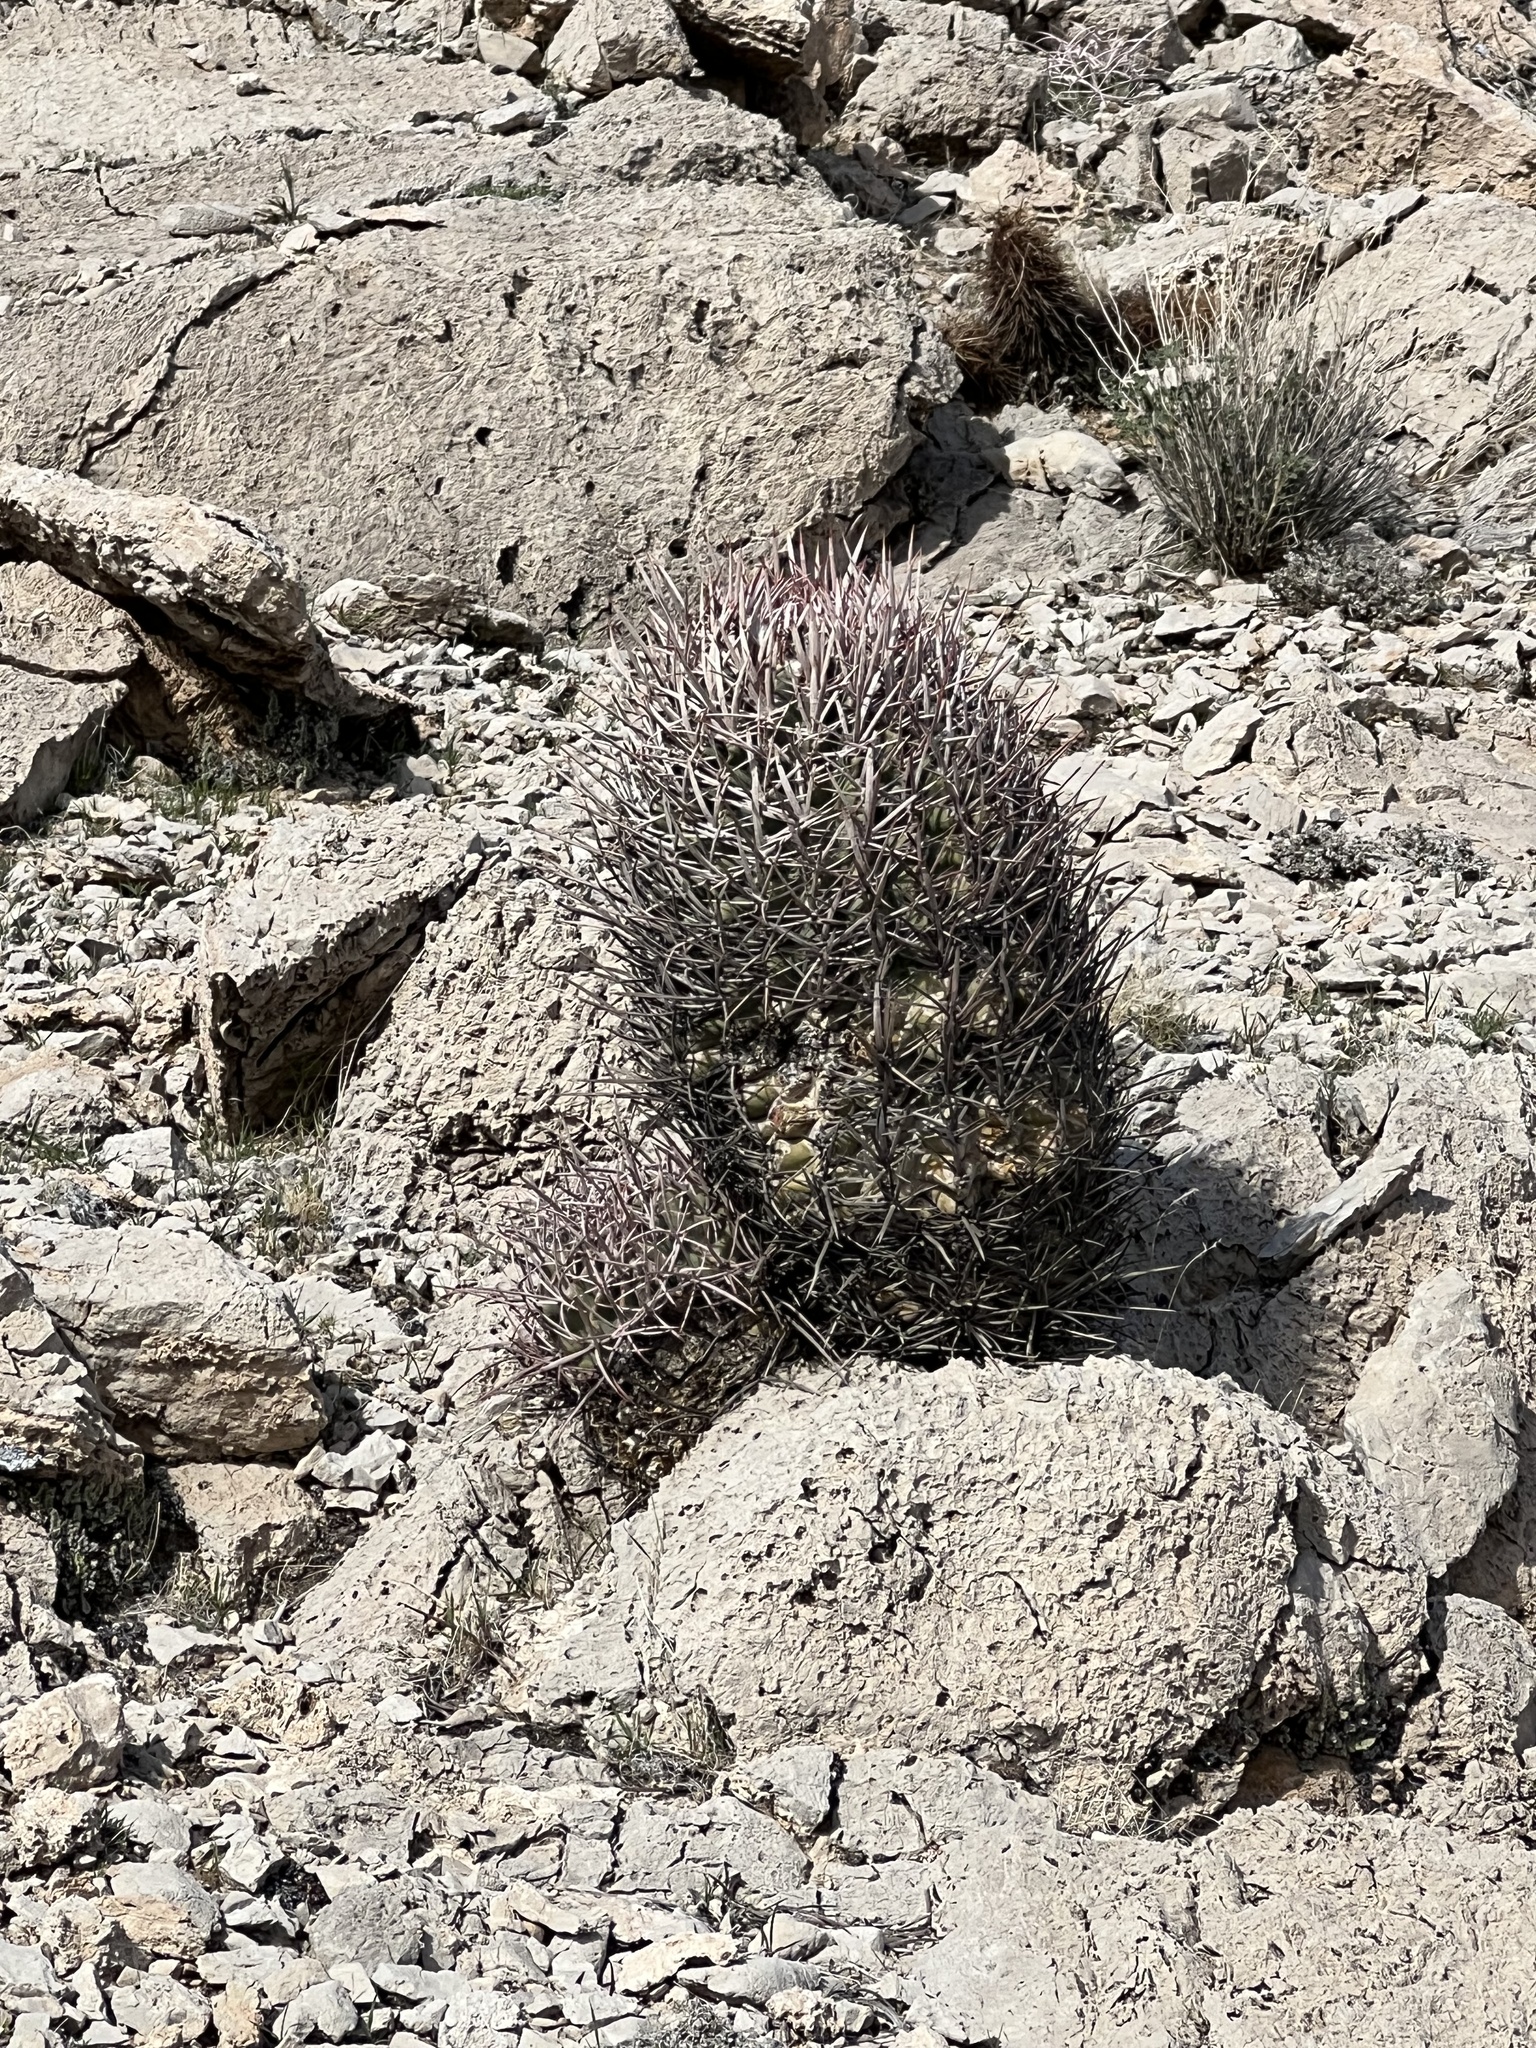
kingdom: Plantae
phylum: Tracheophyta
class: Magnoliopsida
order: Caryophyllales
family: Cactaceae
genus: Echinocactus
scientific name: Echinocactus polycephalus
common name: Cottontop cactus
